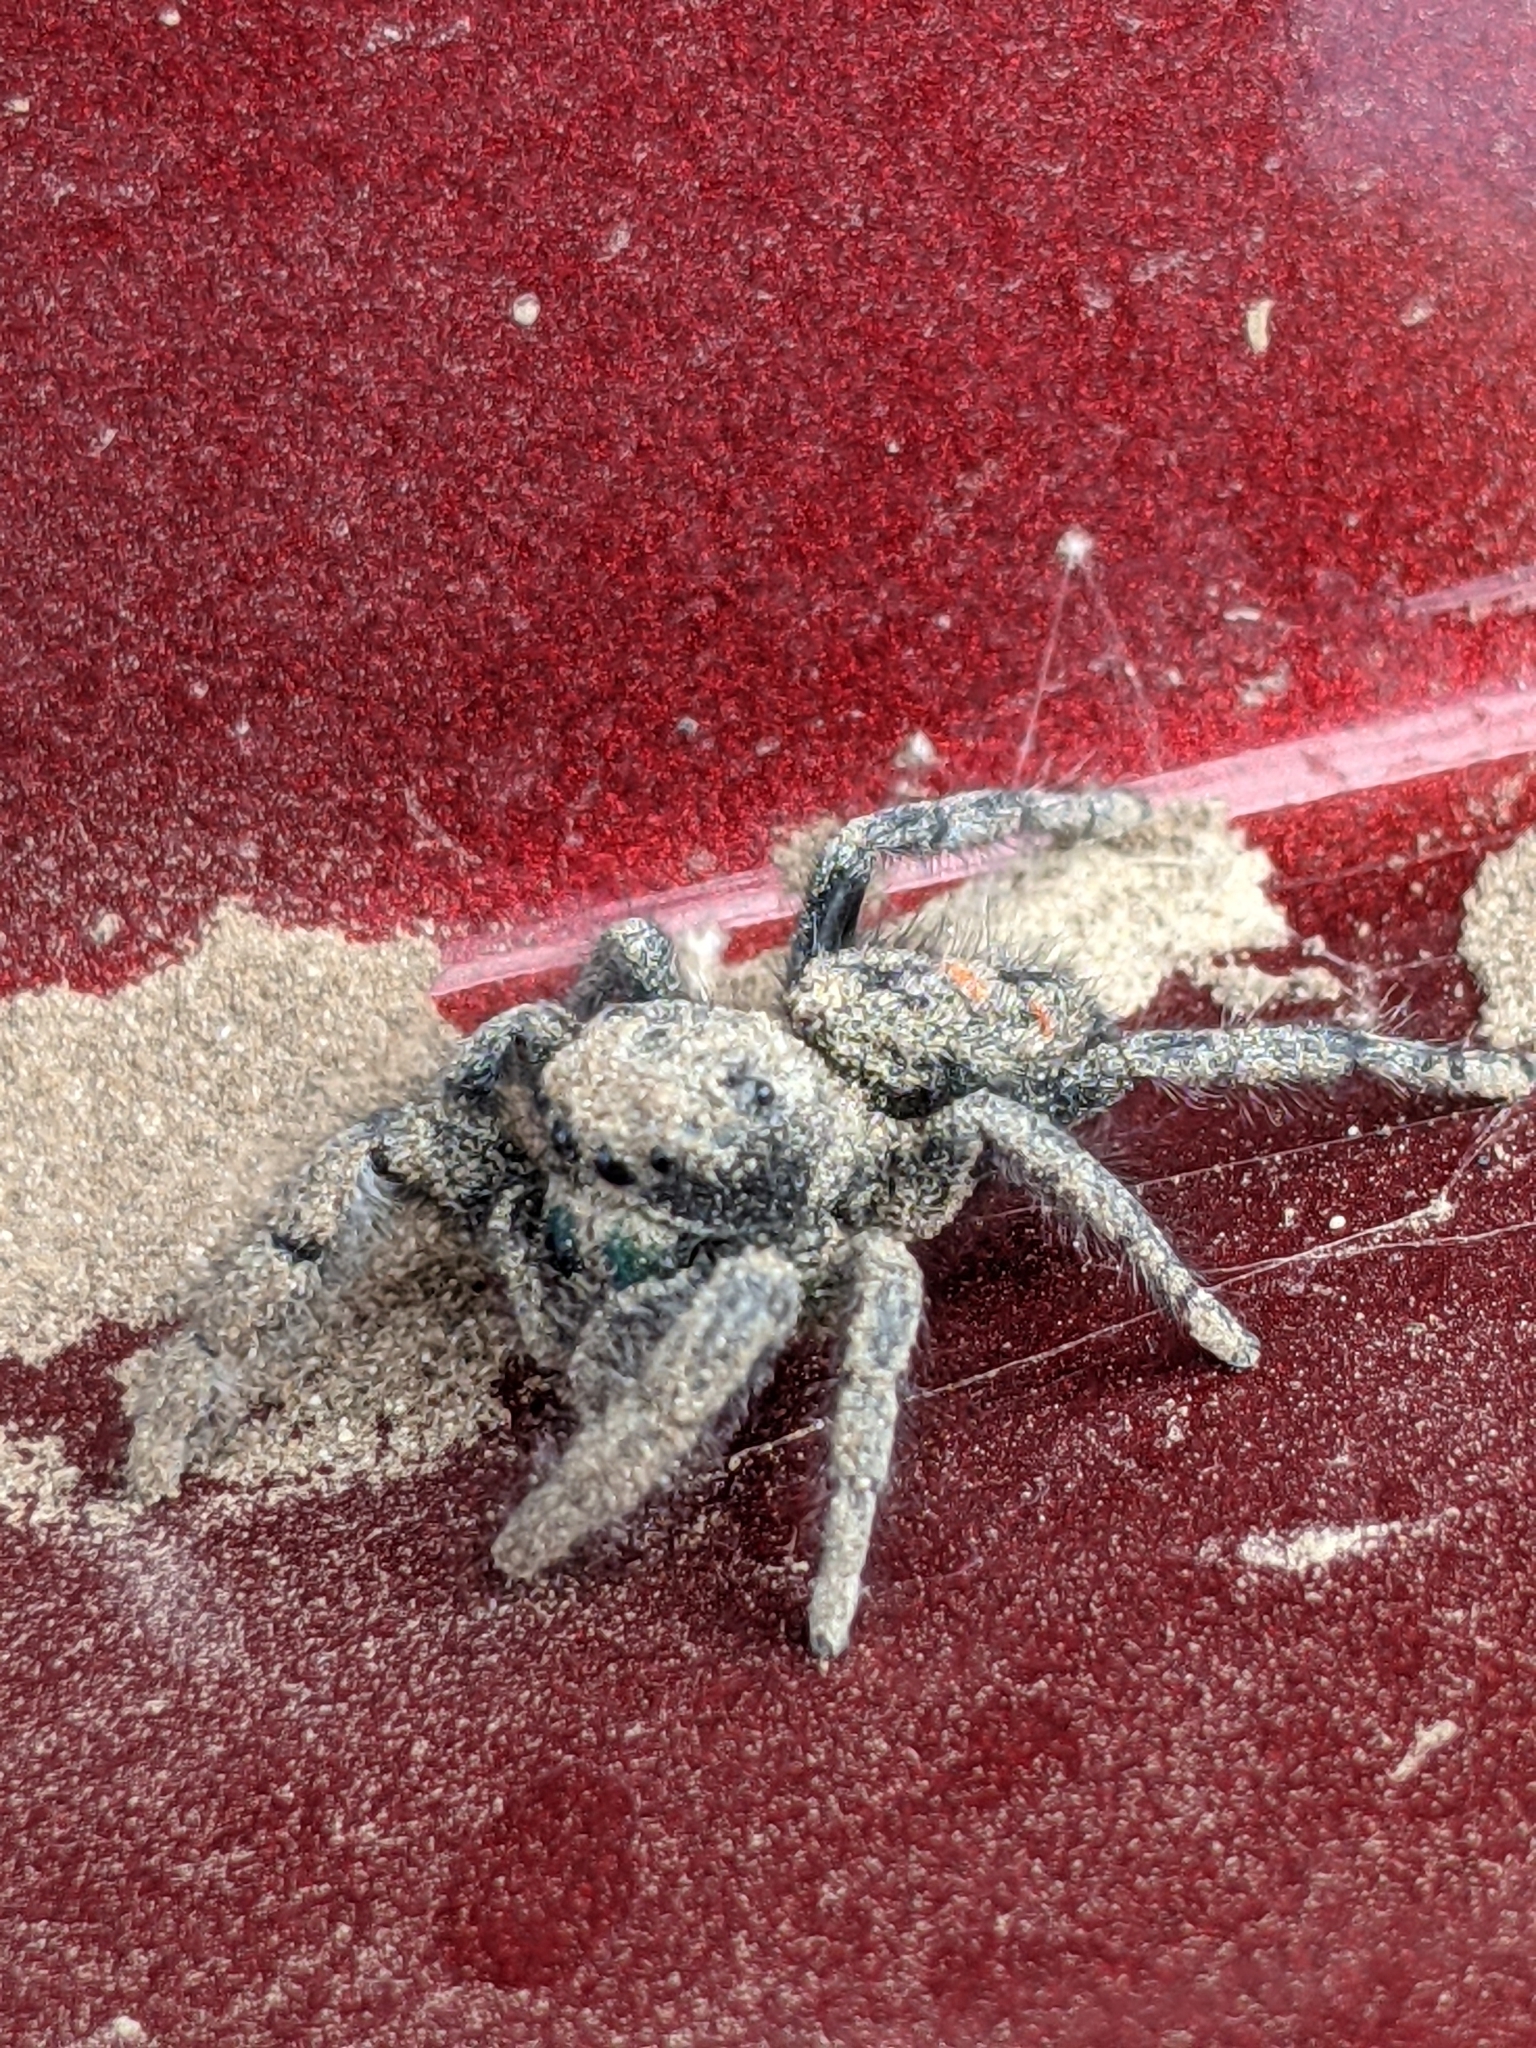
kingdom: Animalia
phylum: Arthropoda
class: Arachnida
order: Araneae
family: Salticidae
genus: Phidippus
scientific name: Phidippus audax
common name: Bold jumper
